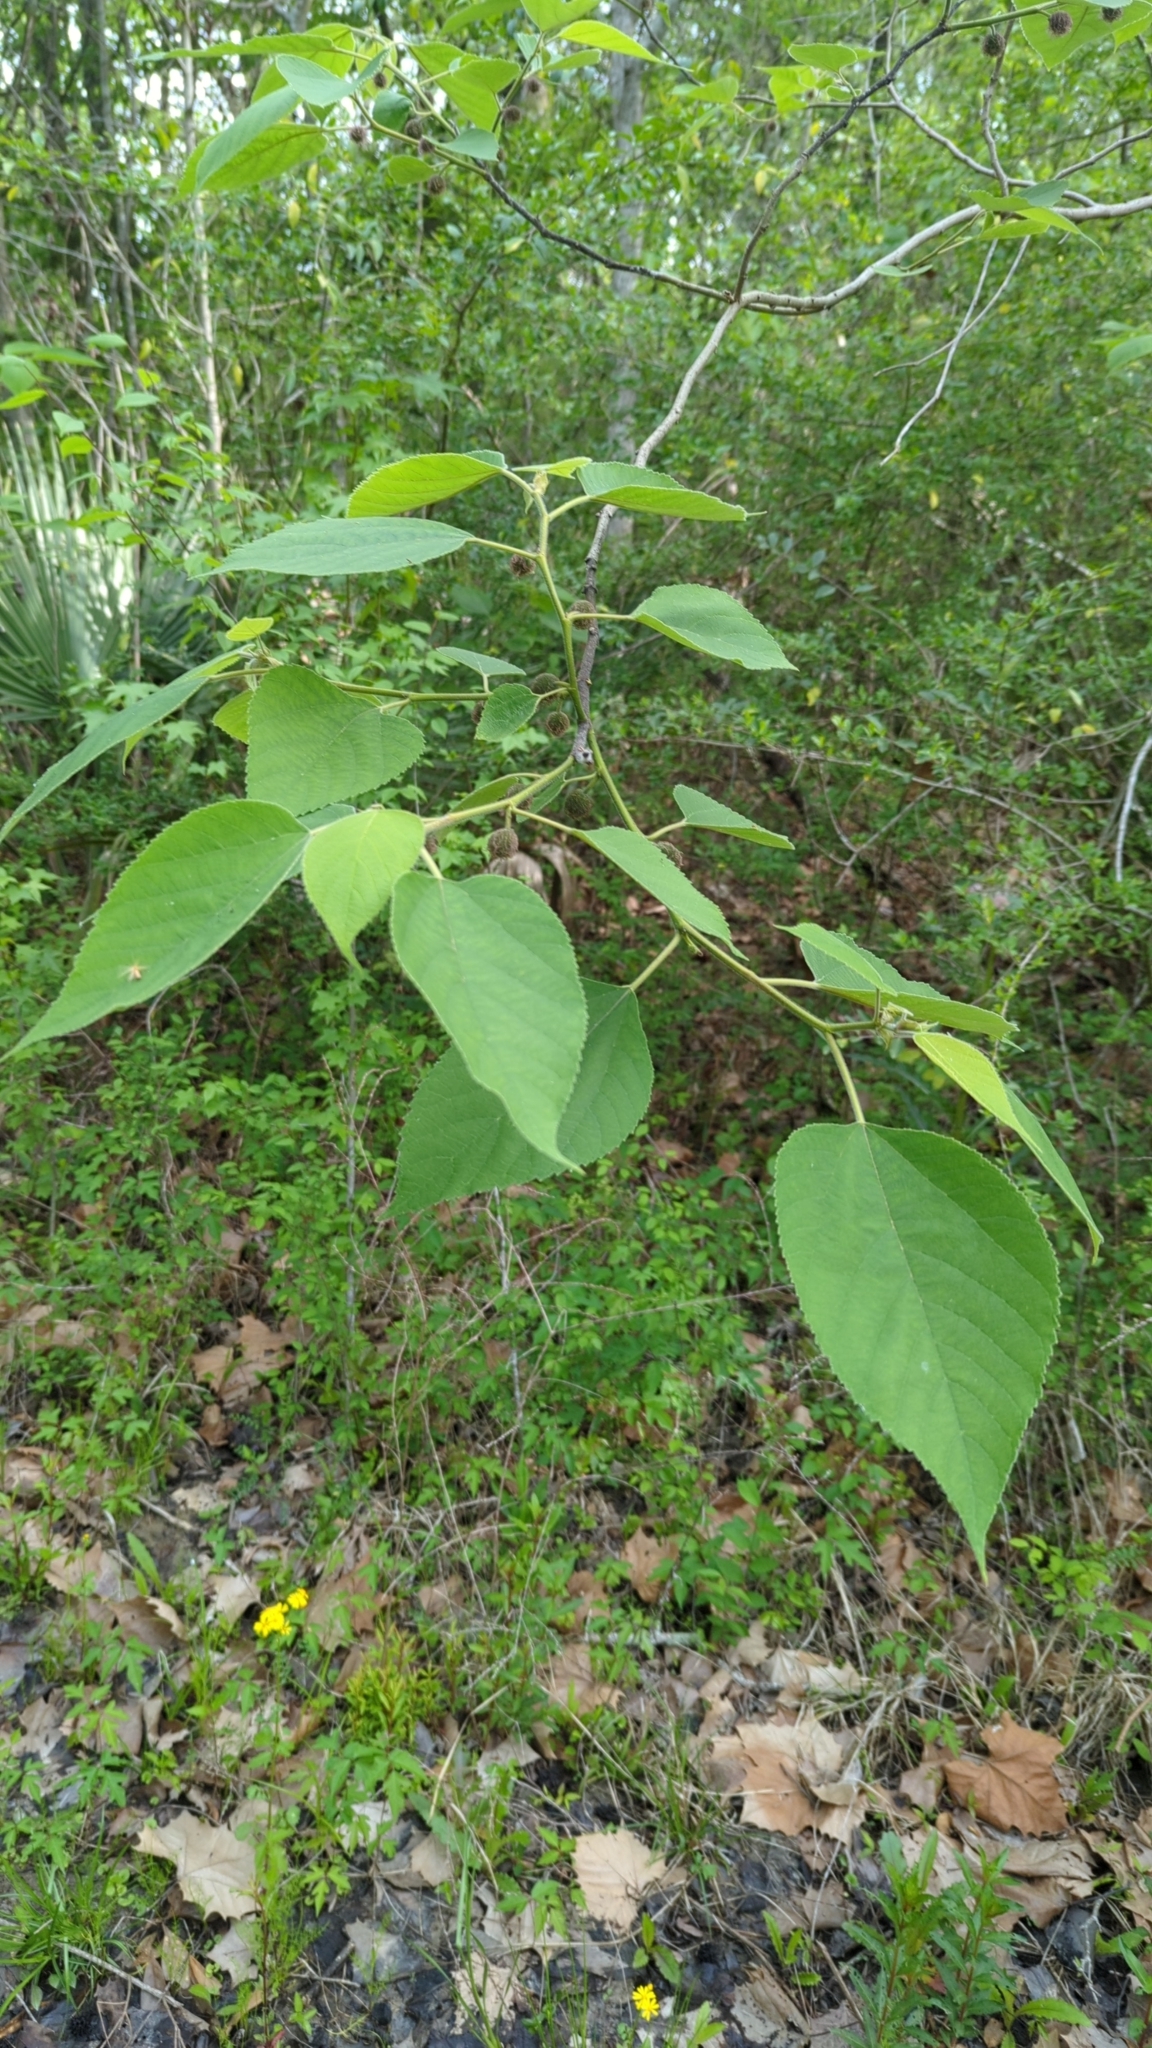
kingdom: Plantae
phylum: Tracheophyta
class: Magnoliopsida
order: Rosales
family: Moraceae
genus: Broussonetia
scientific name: Broussonetia papyrifera
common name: Paper mulberry
